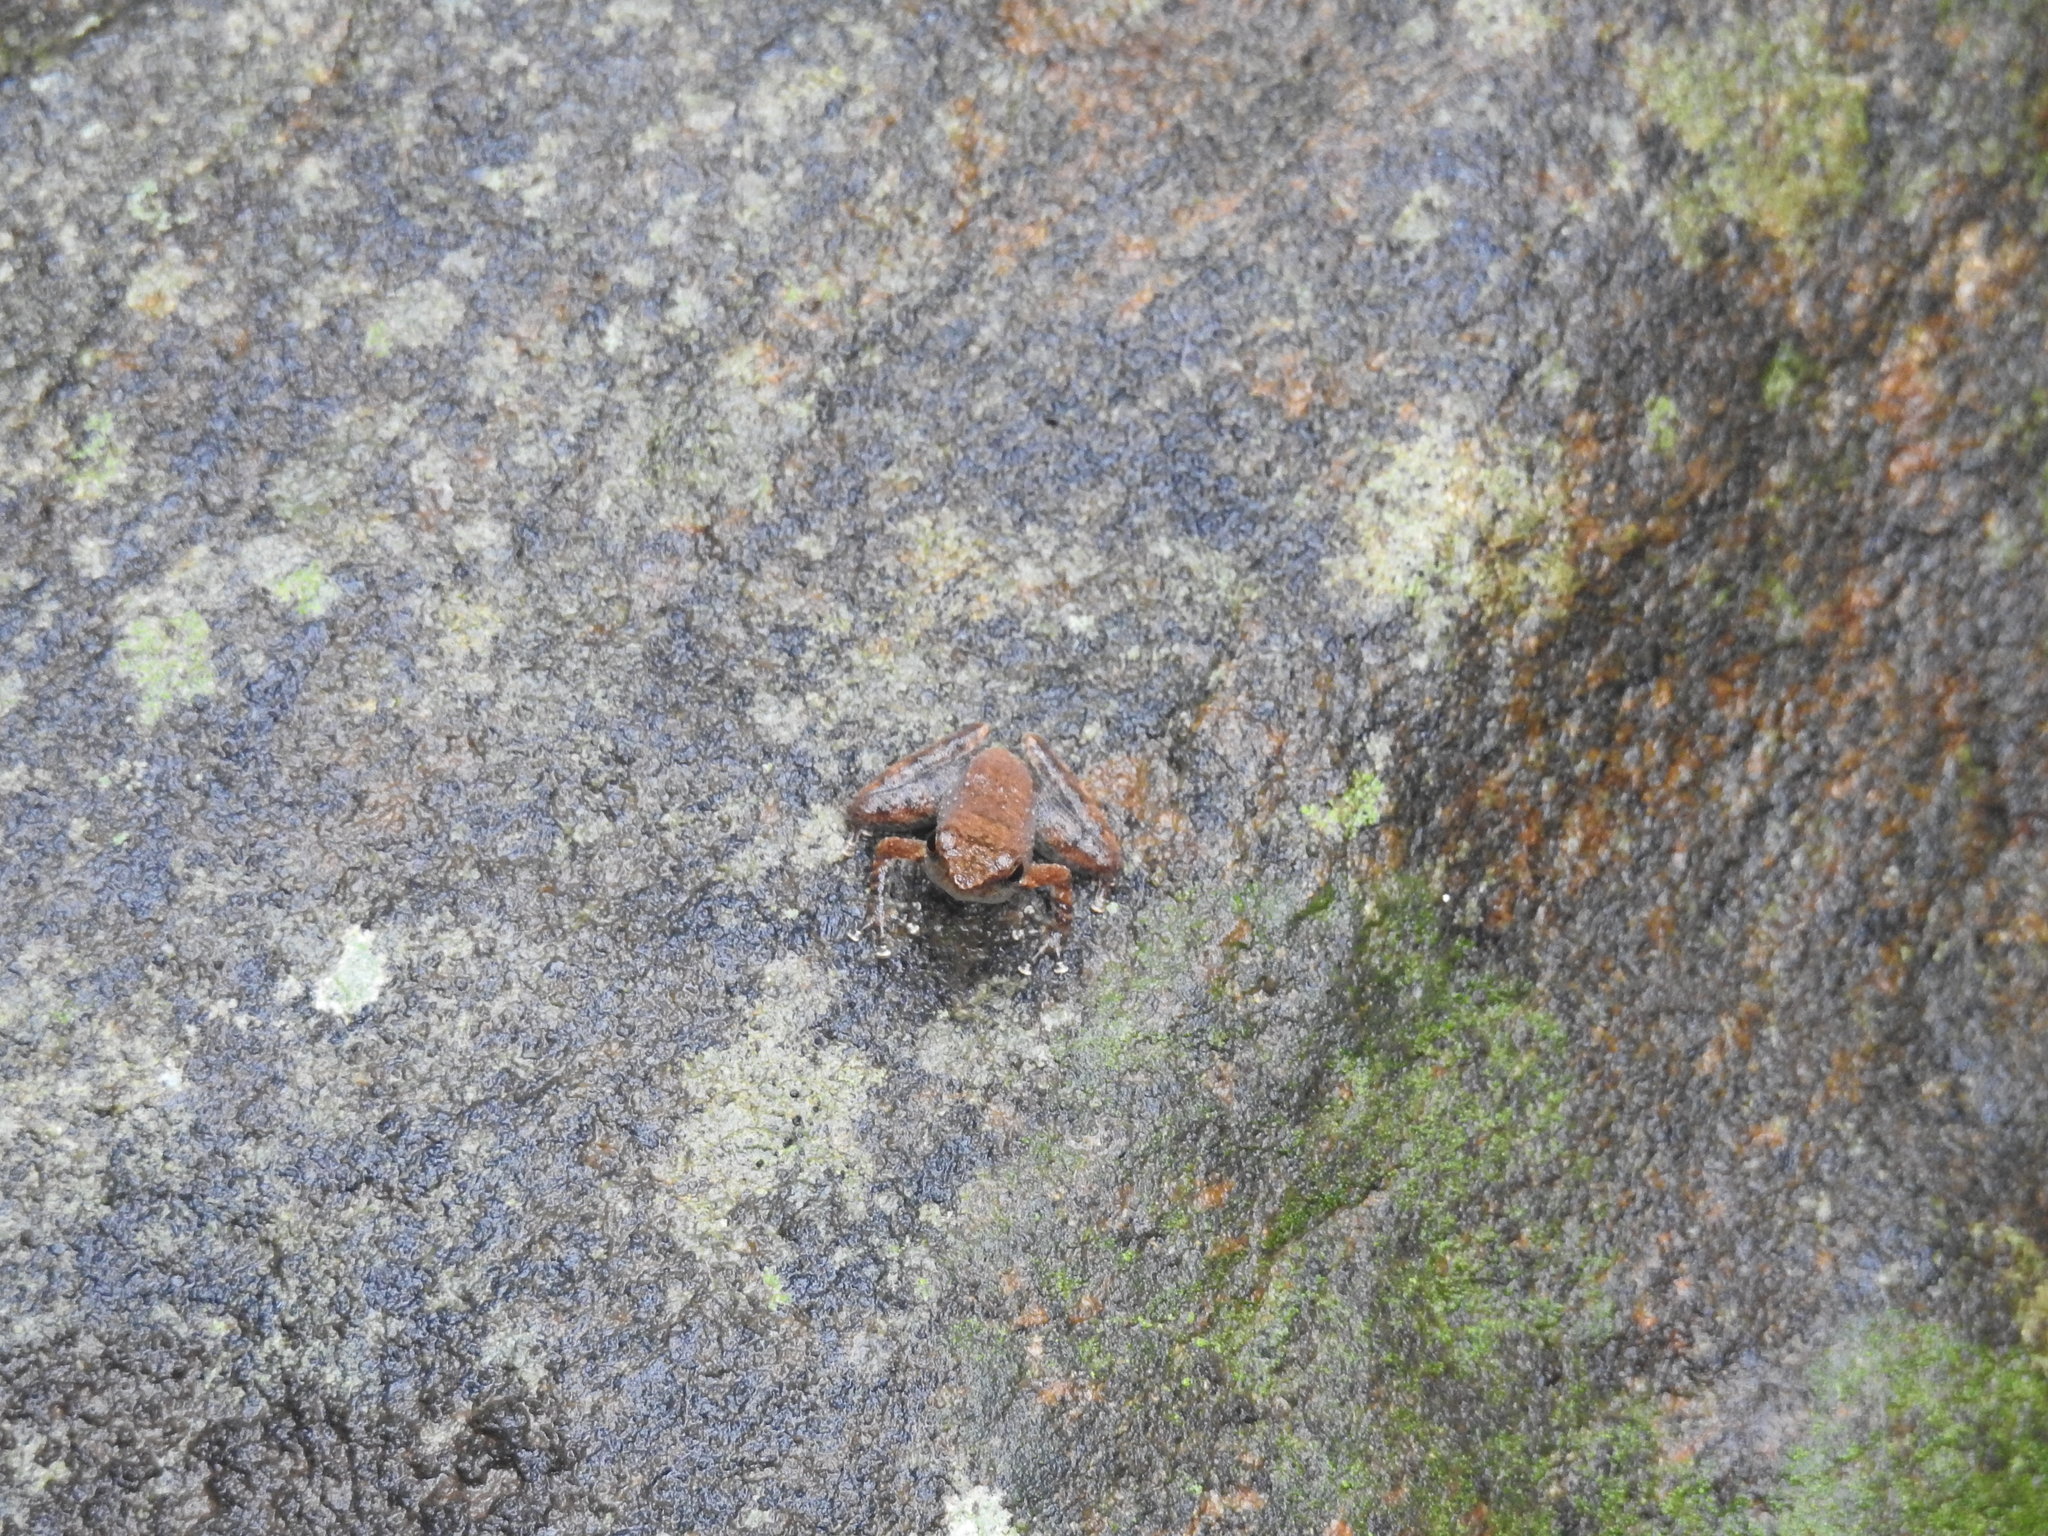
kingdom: Animalia
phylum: Chordata
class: Amphibia
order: Anura
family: Micrixalidae
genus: Micrixalus
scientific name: Micrixalus saxicola
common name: Black torrent frog
